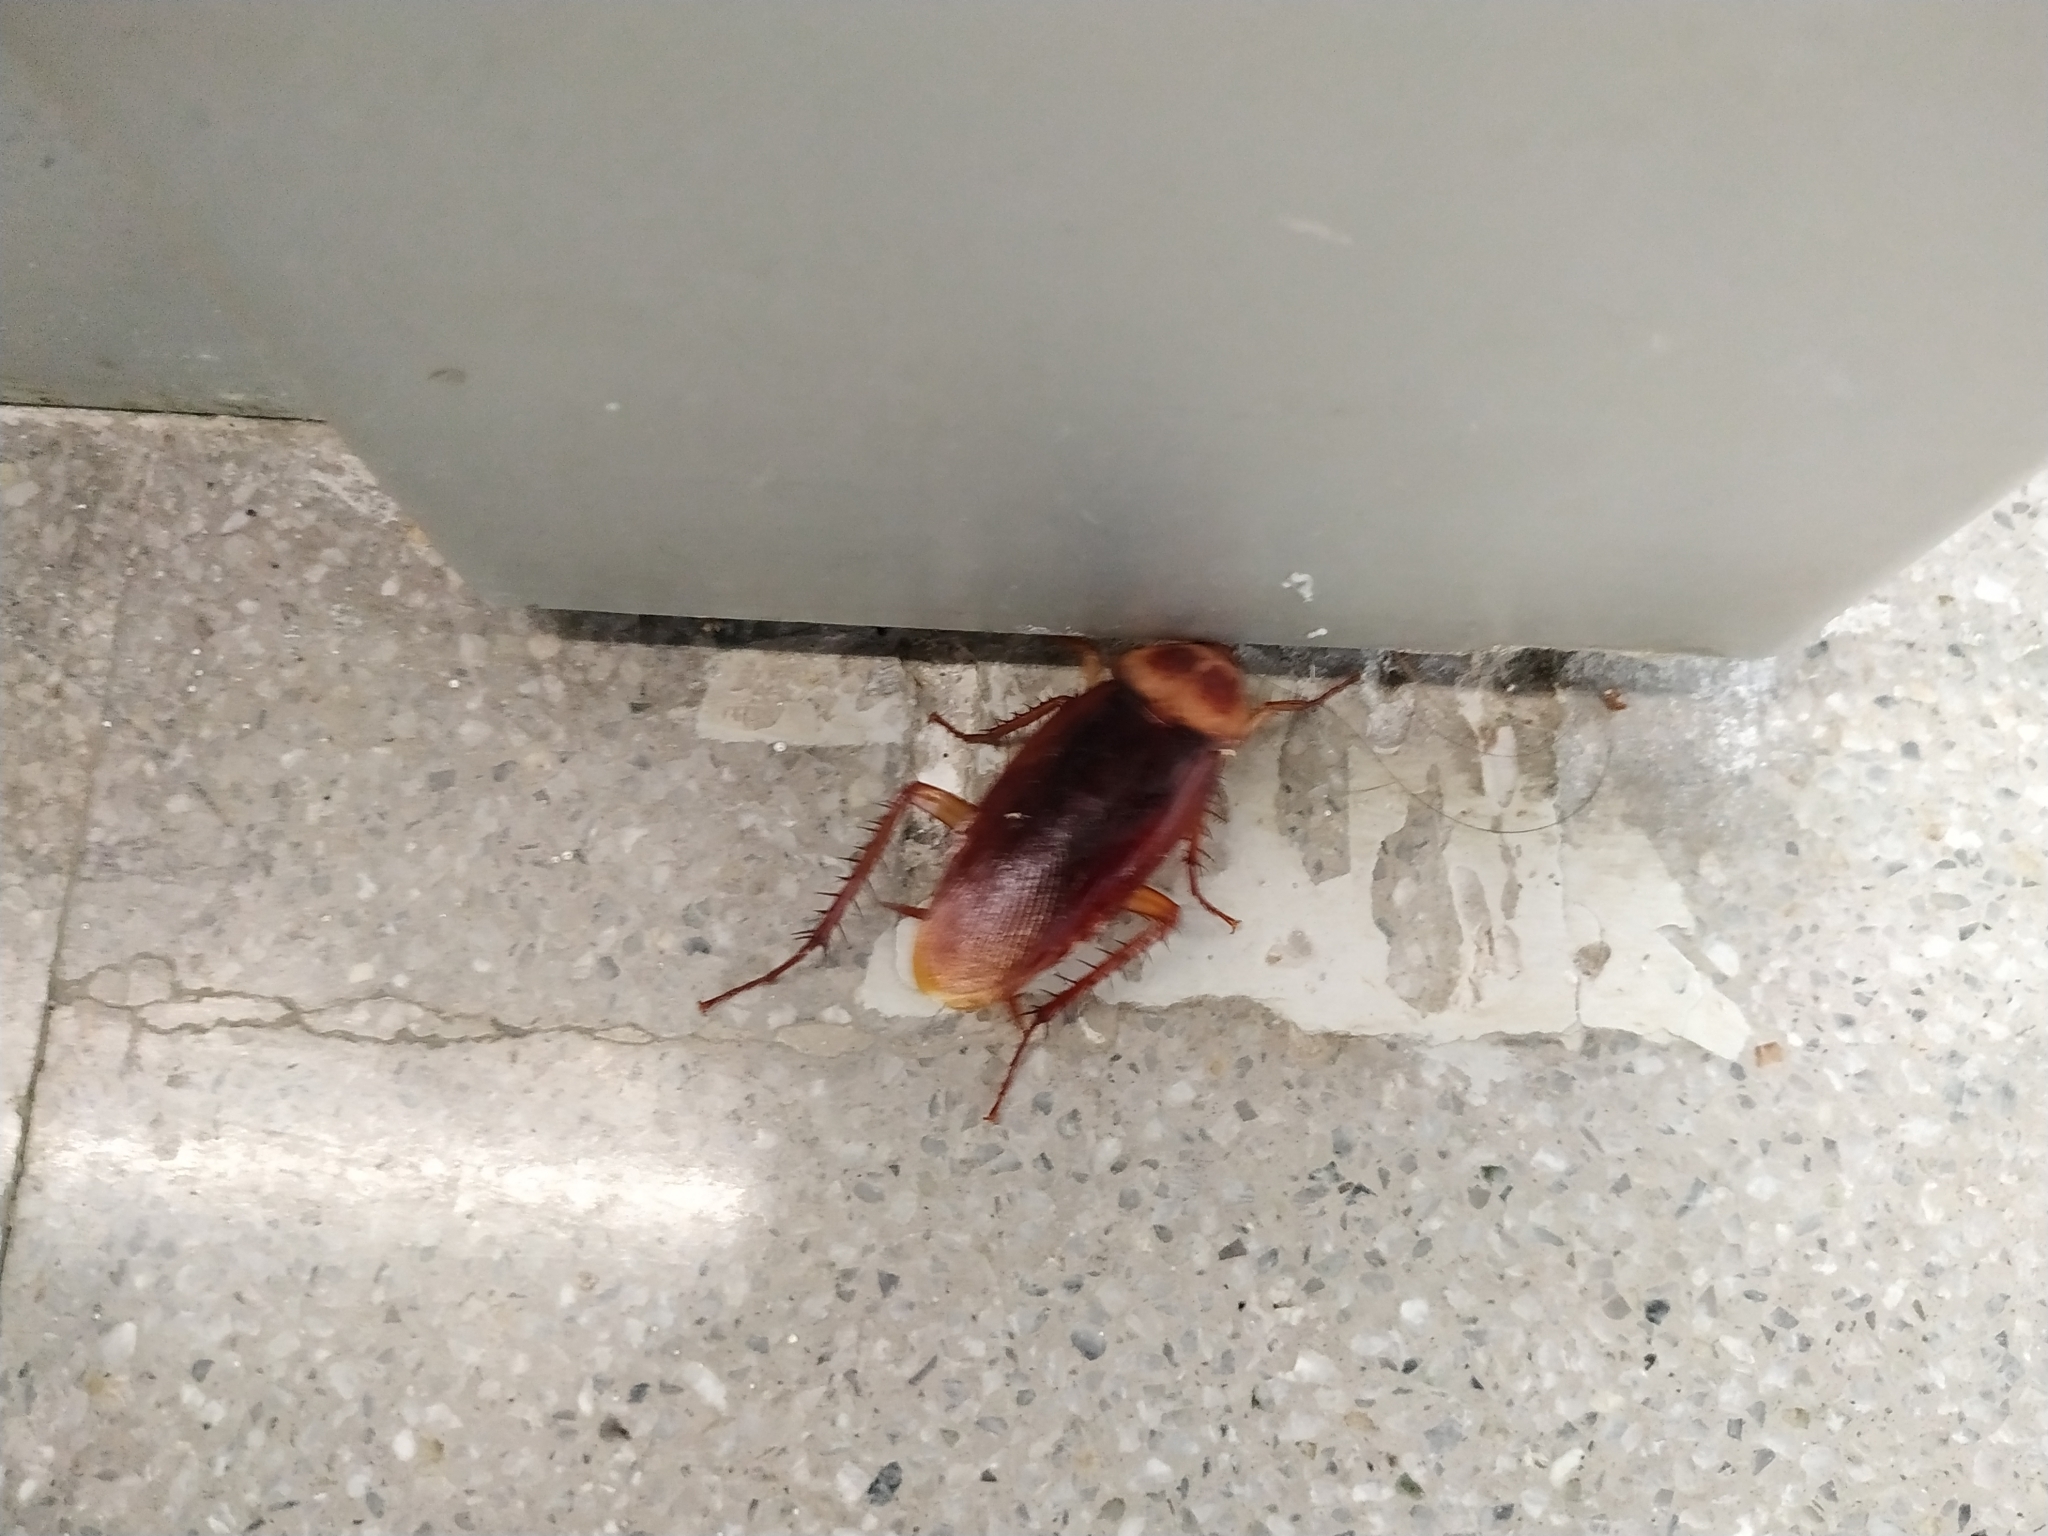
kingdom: Animalia
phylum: Arthropoda
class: Insecta
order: Blattodea
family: Blattidae
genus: Periplaneta
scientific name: Periplaneta americana
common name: American cockroach
